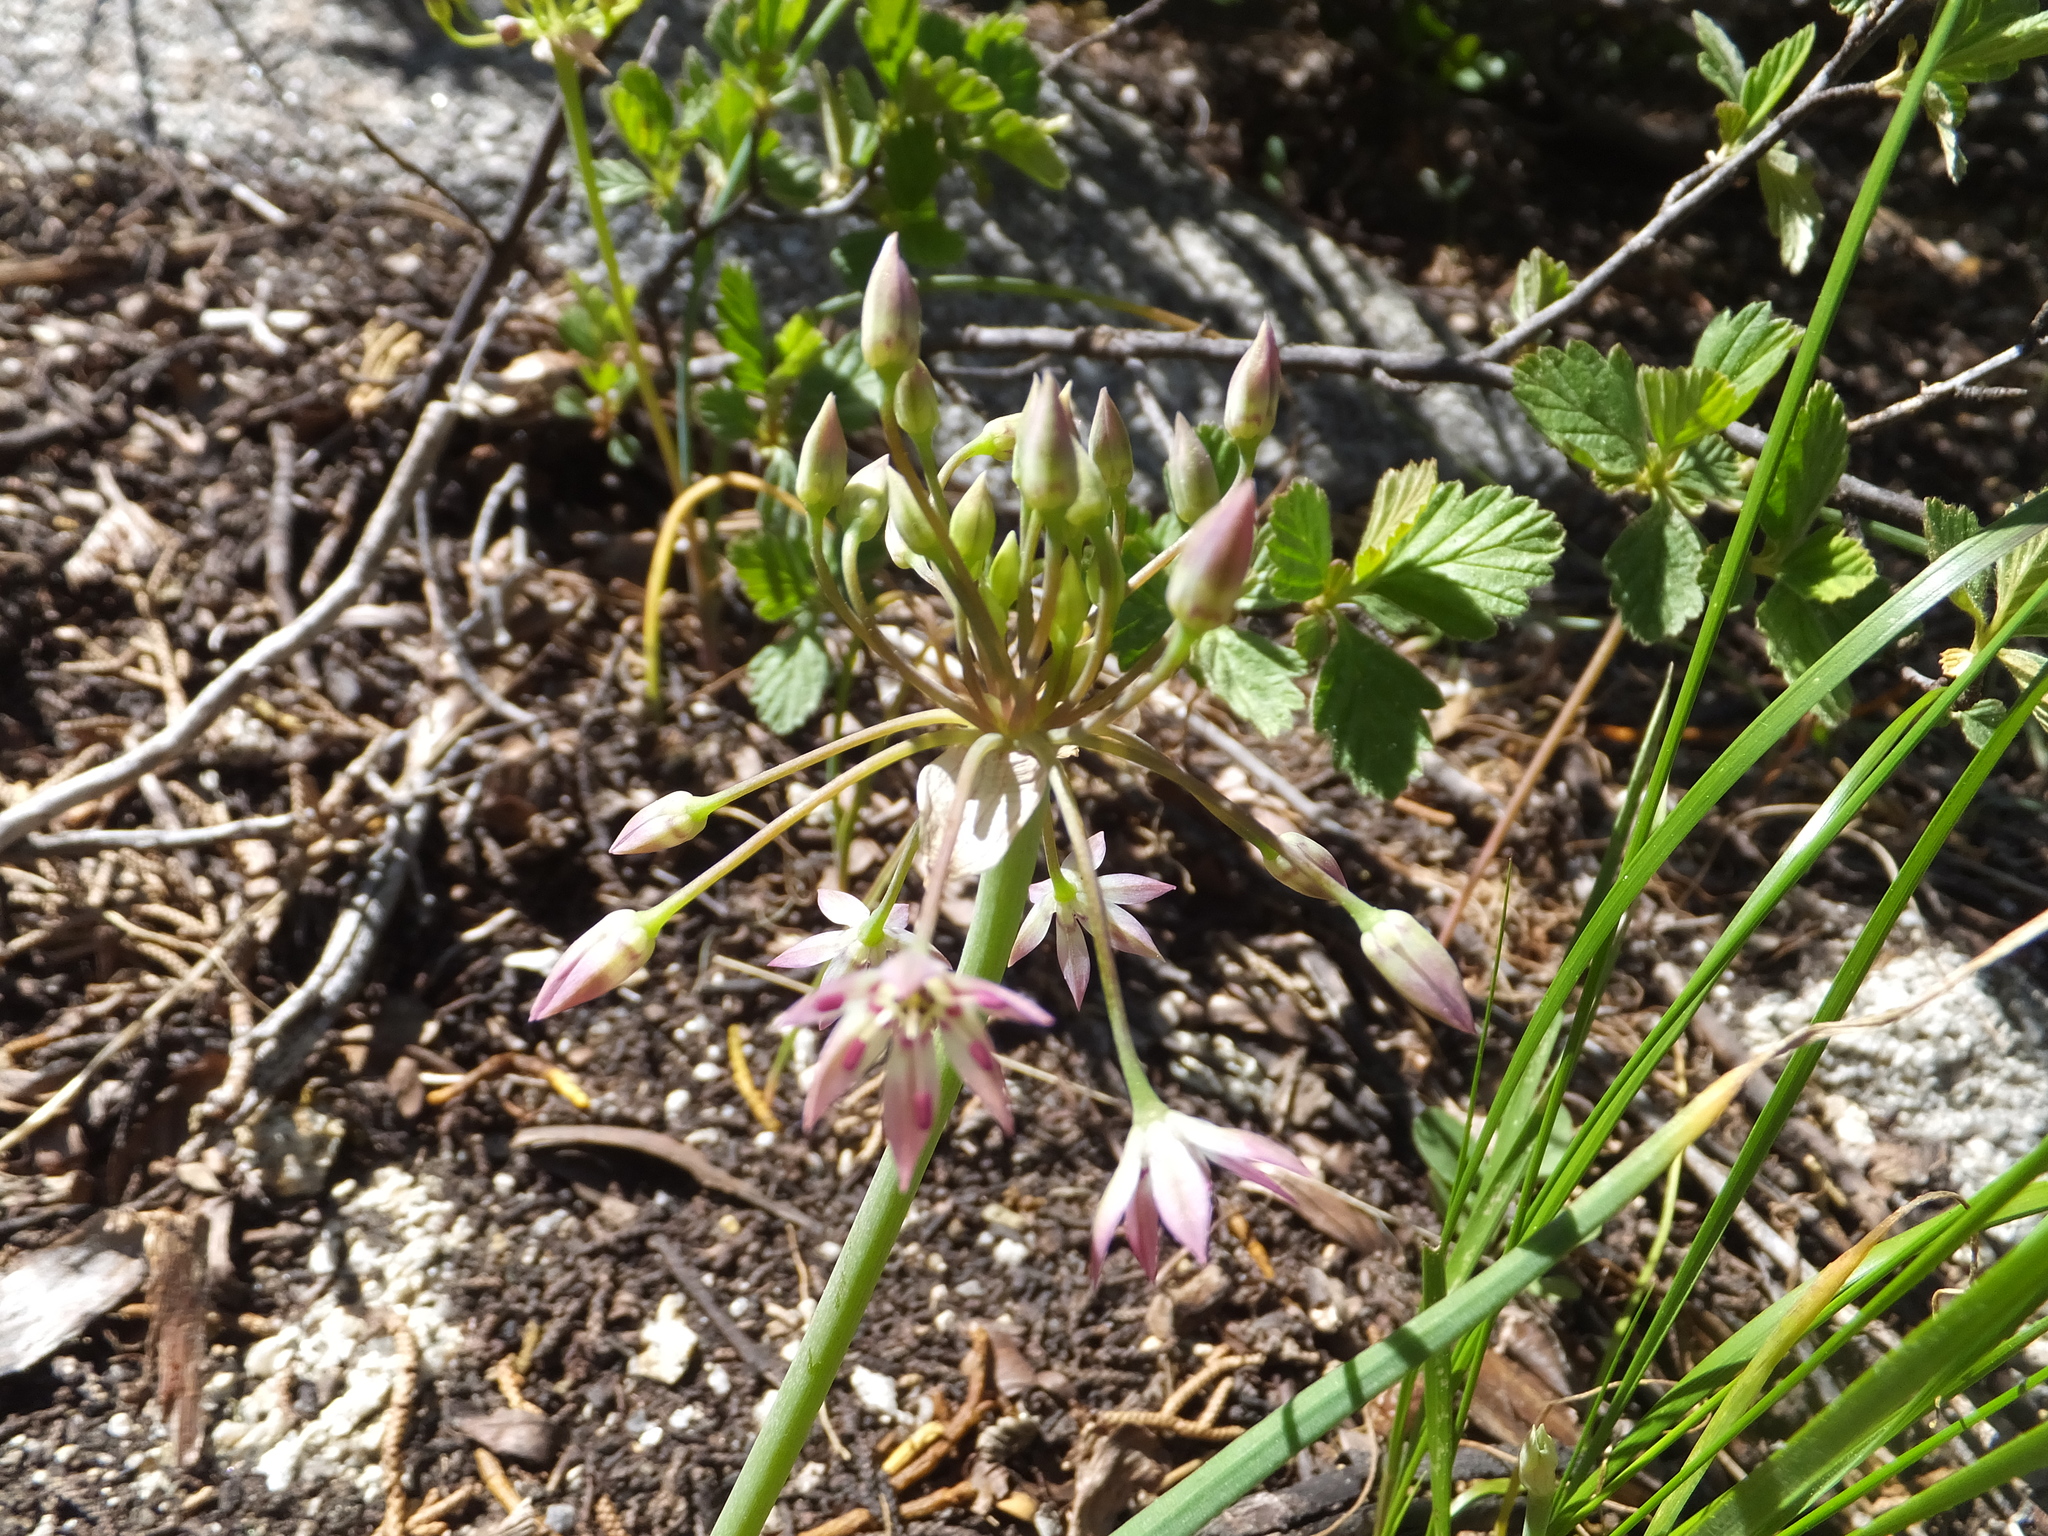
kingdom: Plantae
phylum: Tracheophyta
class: Liliopsida
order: Asparagales
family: Amaryllidaceae
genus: Allium
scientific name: Allium campanulatum
